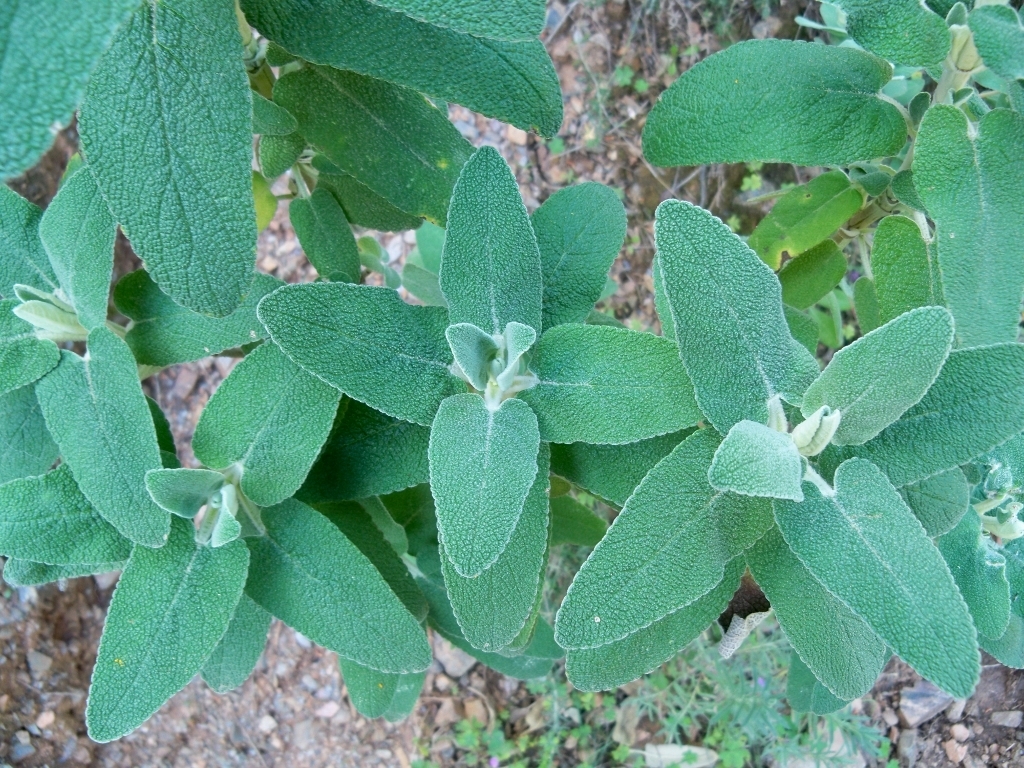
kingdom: Plantae
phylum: Tracheophyta
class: Magnoliopsida
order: Lamiales
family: Lamiaceae
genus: Phlomis
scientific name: Phlomis purpurea
